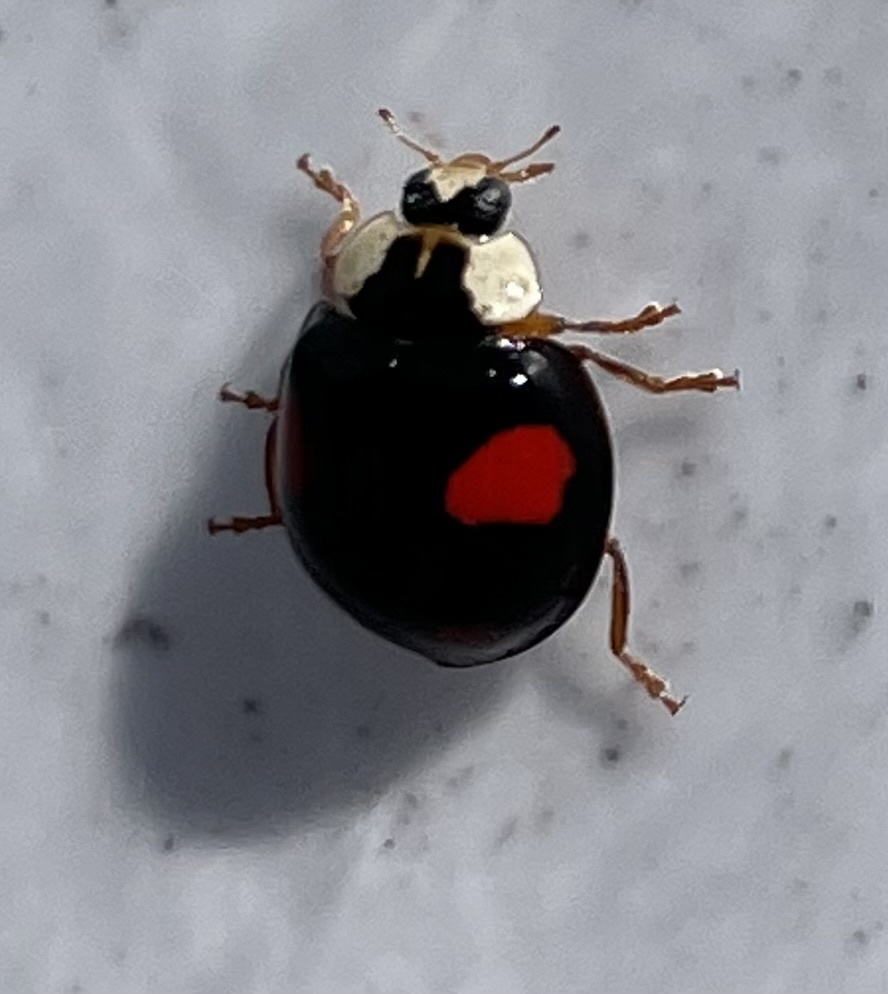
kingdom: Animalia
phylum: Arthropoda
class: Insecta
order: Coleoptera
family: Coccinellidae
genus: Harmonia
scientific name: Harmonia axyridis
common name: Harlequin ladybird
